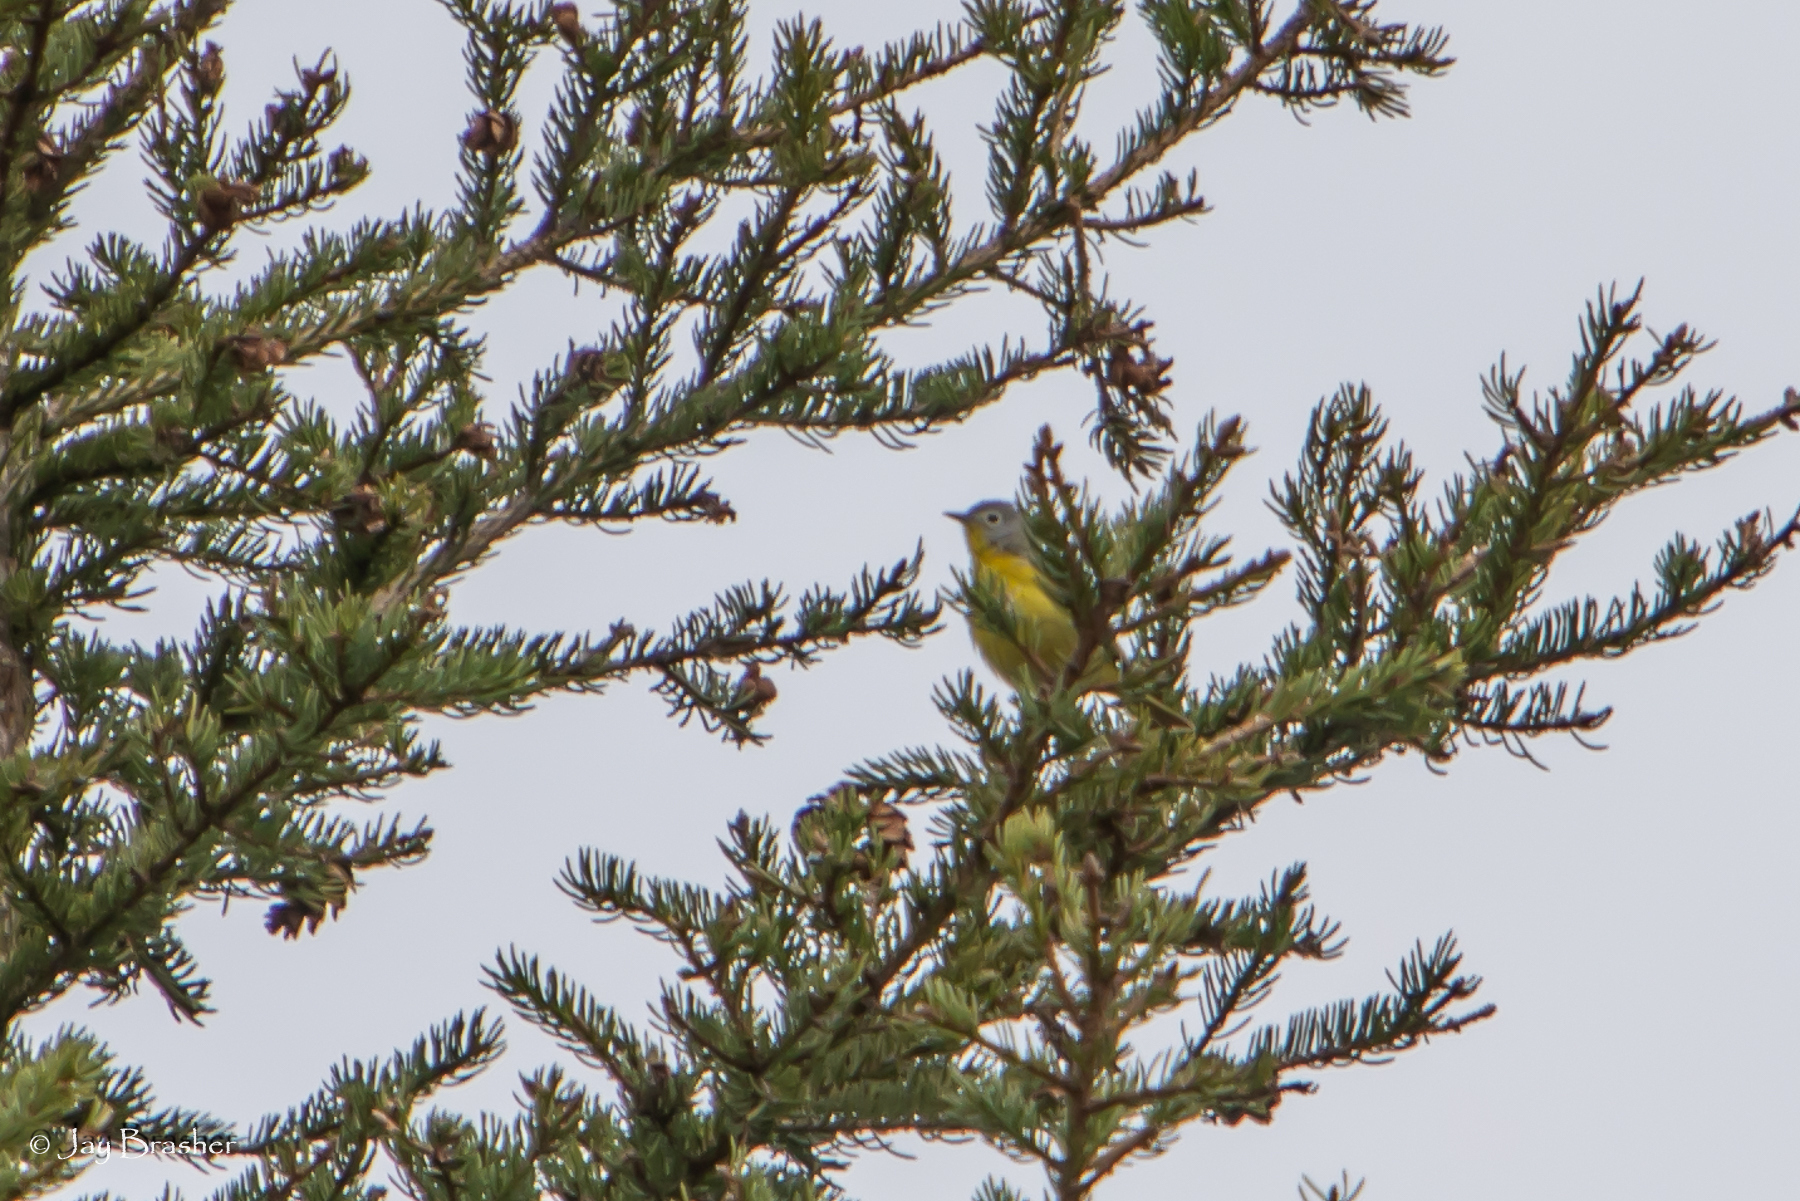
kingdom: Animalia
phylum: Chordata
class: Aves
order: Passeriformes
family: Parulidae
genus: Leiothlypis
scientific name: Leiothlypis ruficapilla
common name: Nashville warbler
